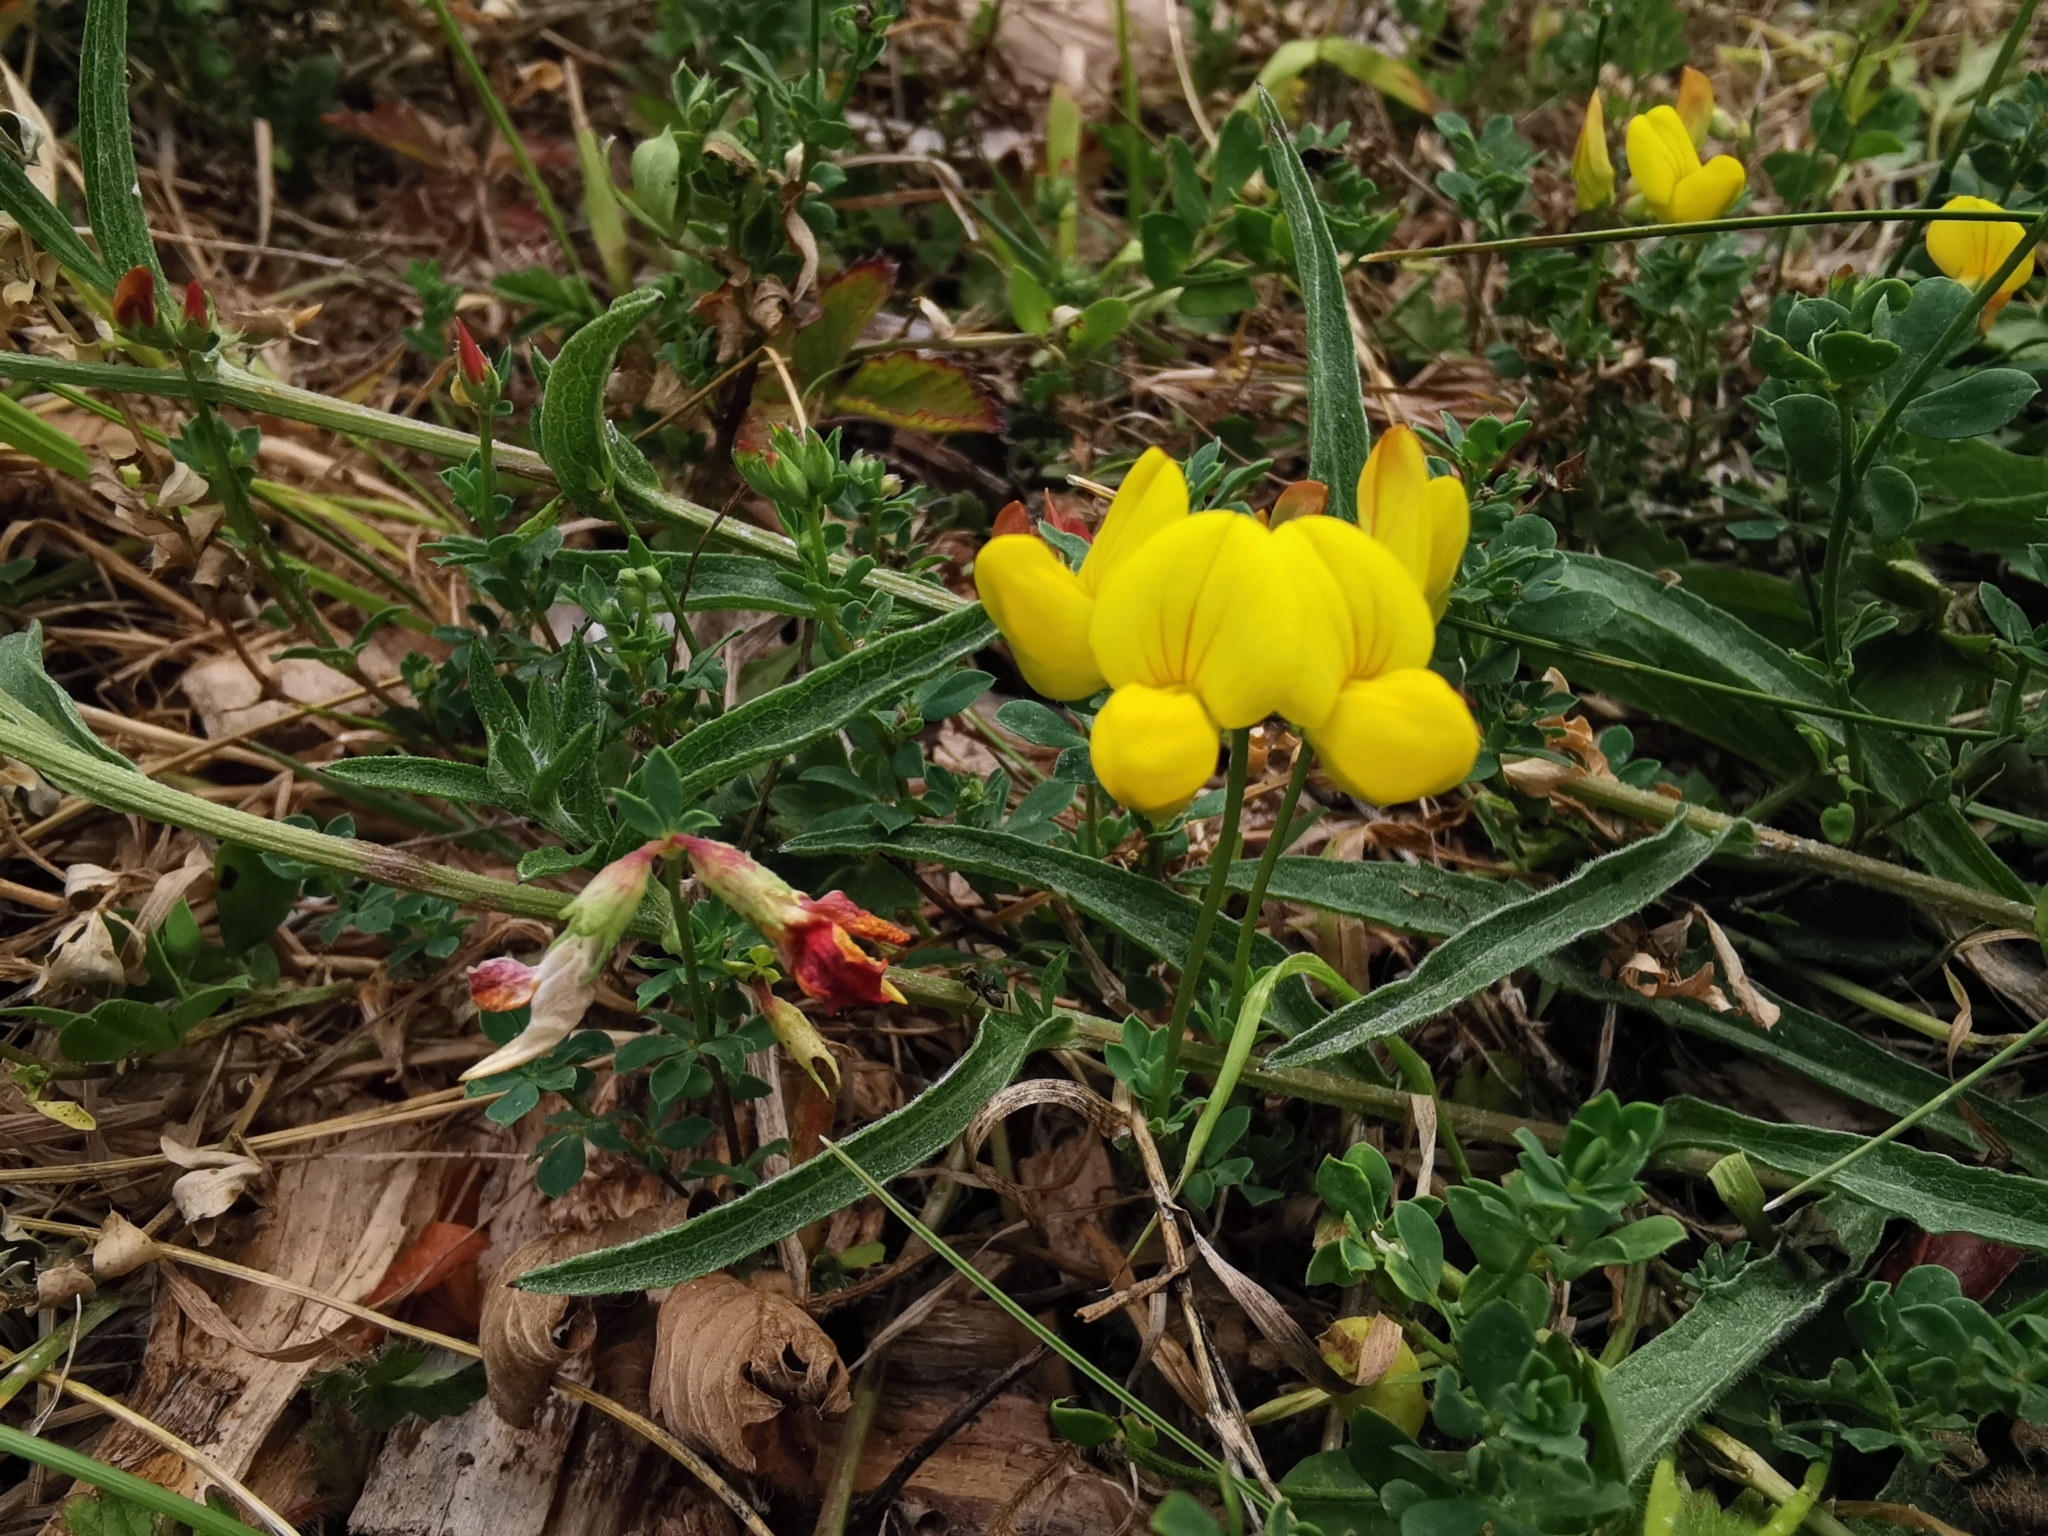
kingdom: Plantae
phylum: Tracheophyta
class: Magnoliopsida
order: Fabales
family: Fabaceae
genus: Lotus
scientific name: Lotus corniculatus
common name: Common bird's-foot-trefoil
